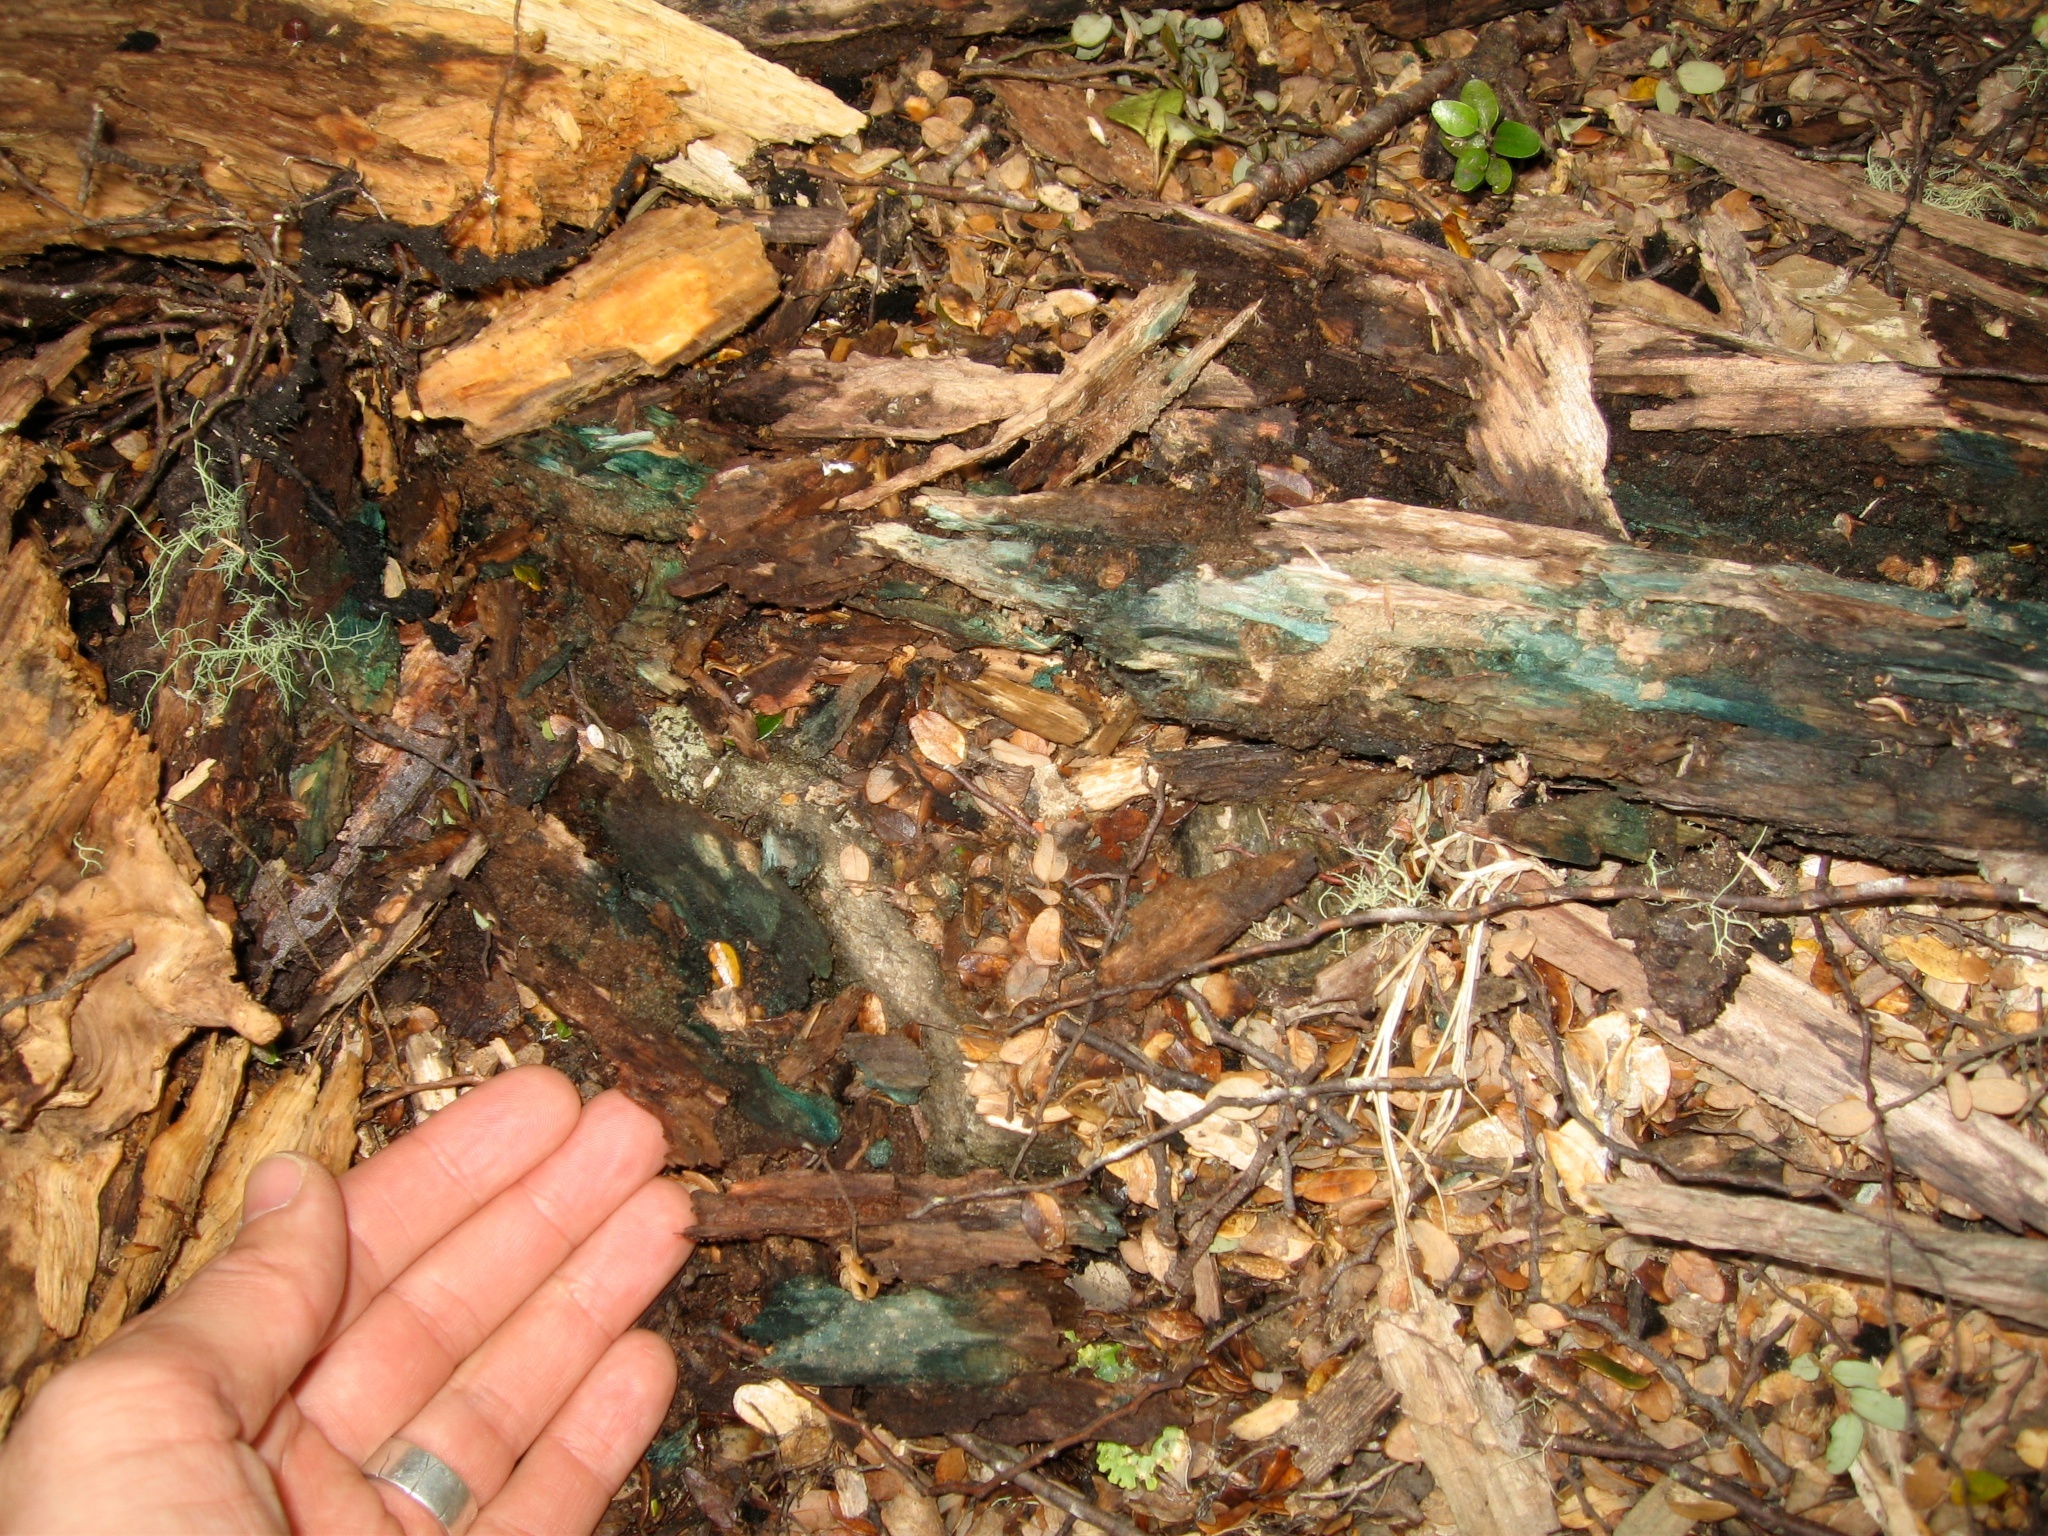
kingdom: Fungi
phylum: Ascomycota
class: Leotiomycetes
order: Helotiales
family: Chlorociboriaceae
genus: Chlorociboria
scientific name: Chlorociboria
